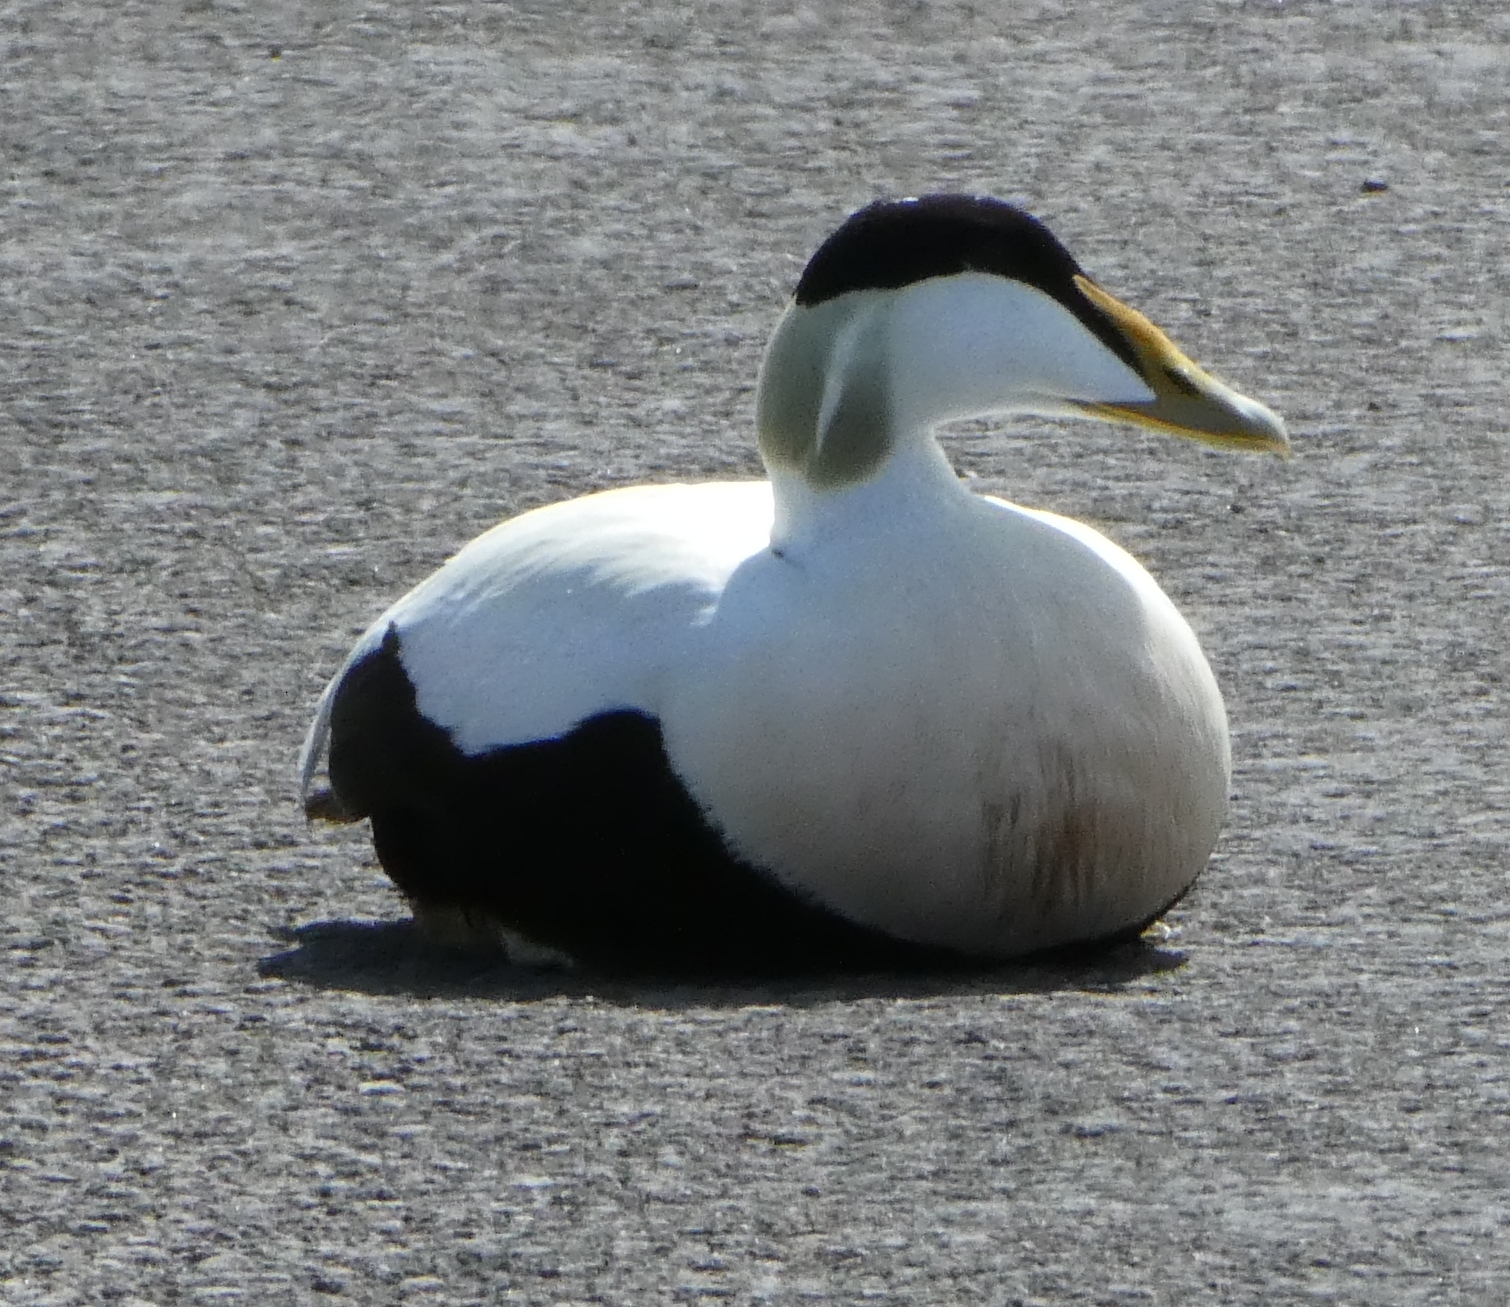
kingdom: Animalia
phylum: Chordata
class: Aves
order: Anseriformes
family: Anatidae
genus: Somateria
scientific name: Somateria mollissima
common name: Common eider
